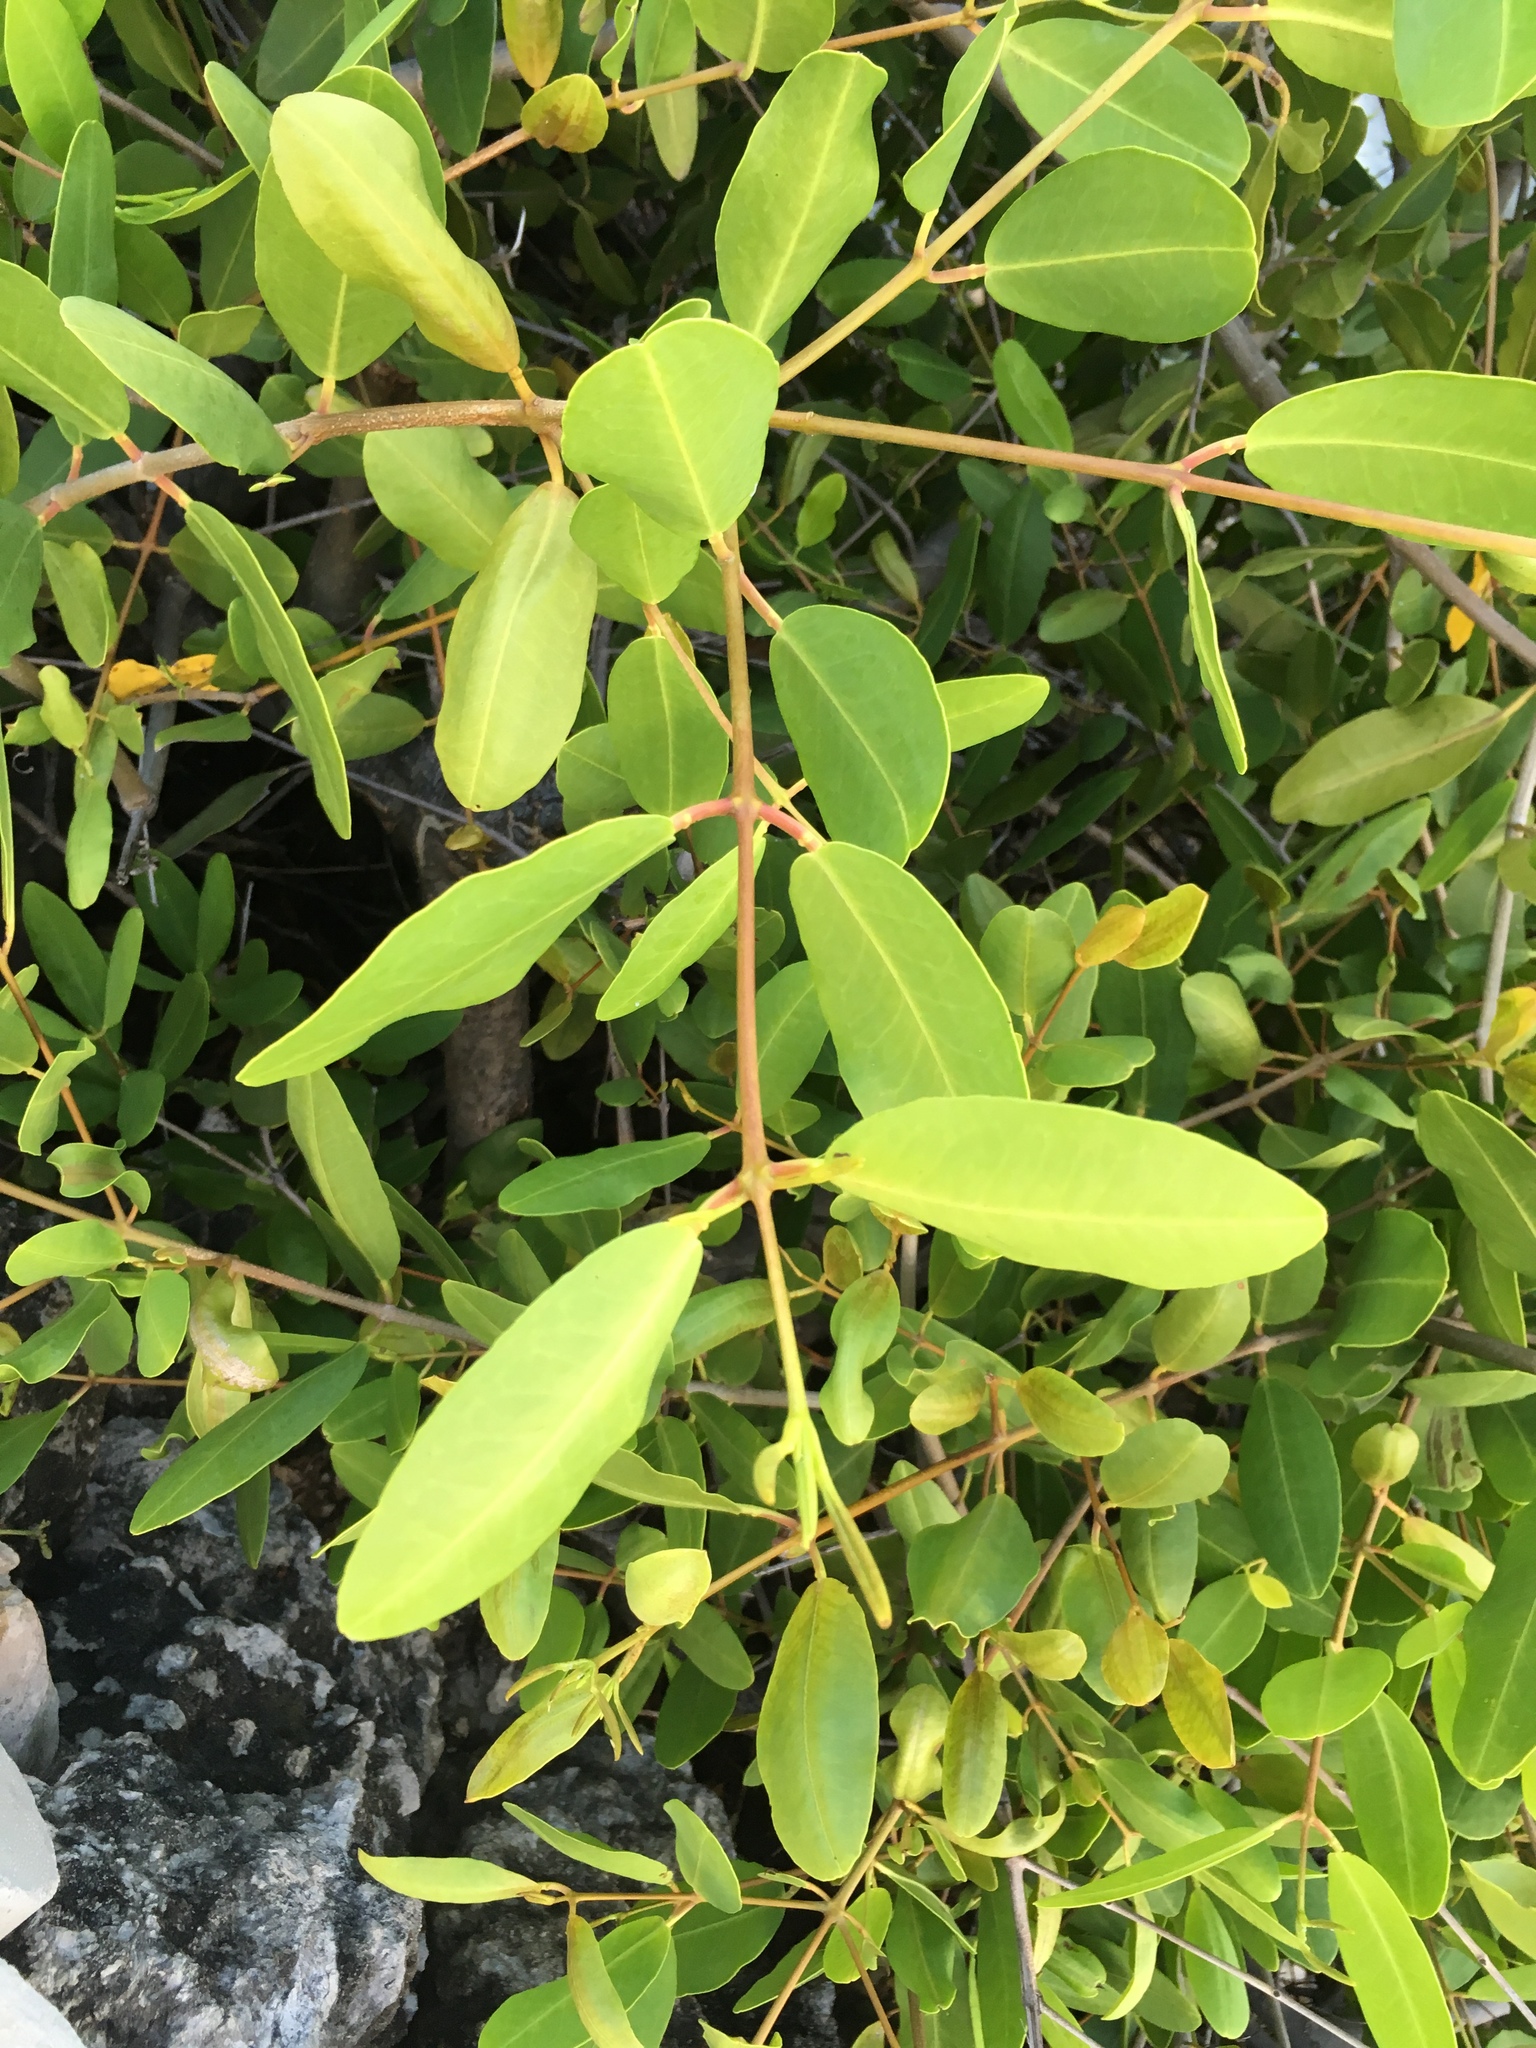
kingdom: Plantae
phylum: Tracheophyta
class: Magnoliopsida
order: Myrtales
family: Combretaceae
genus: Laguncularia
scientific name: Laguncularia racemosa
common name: White mangrove
